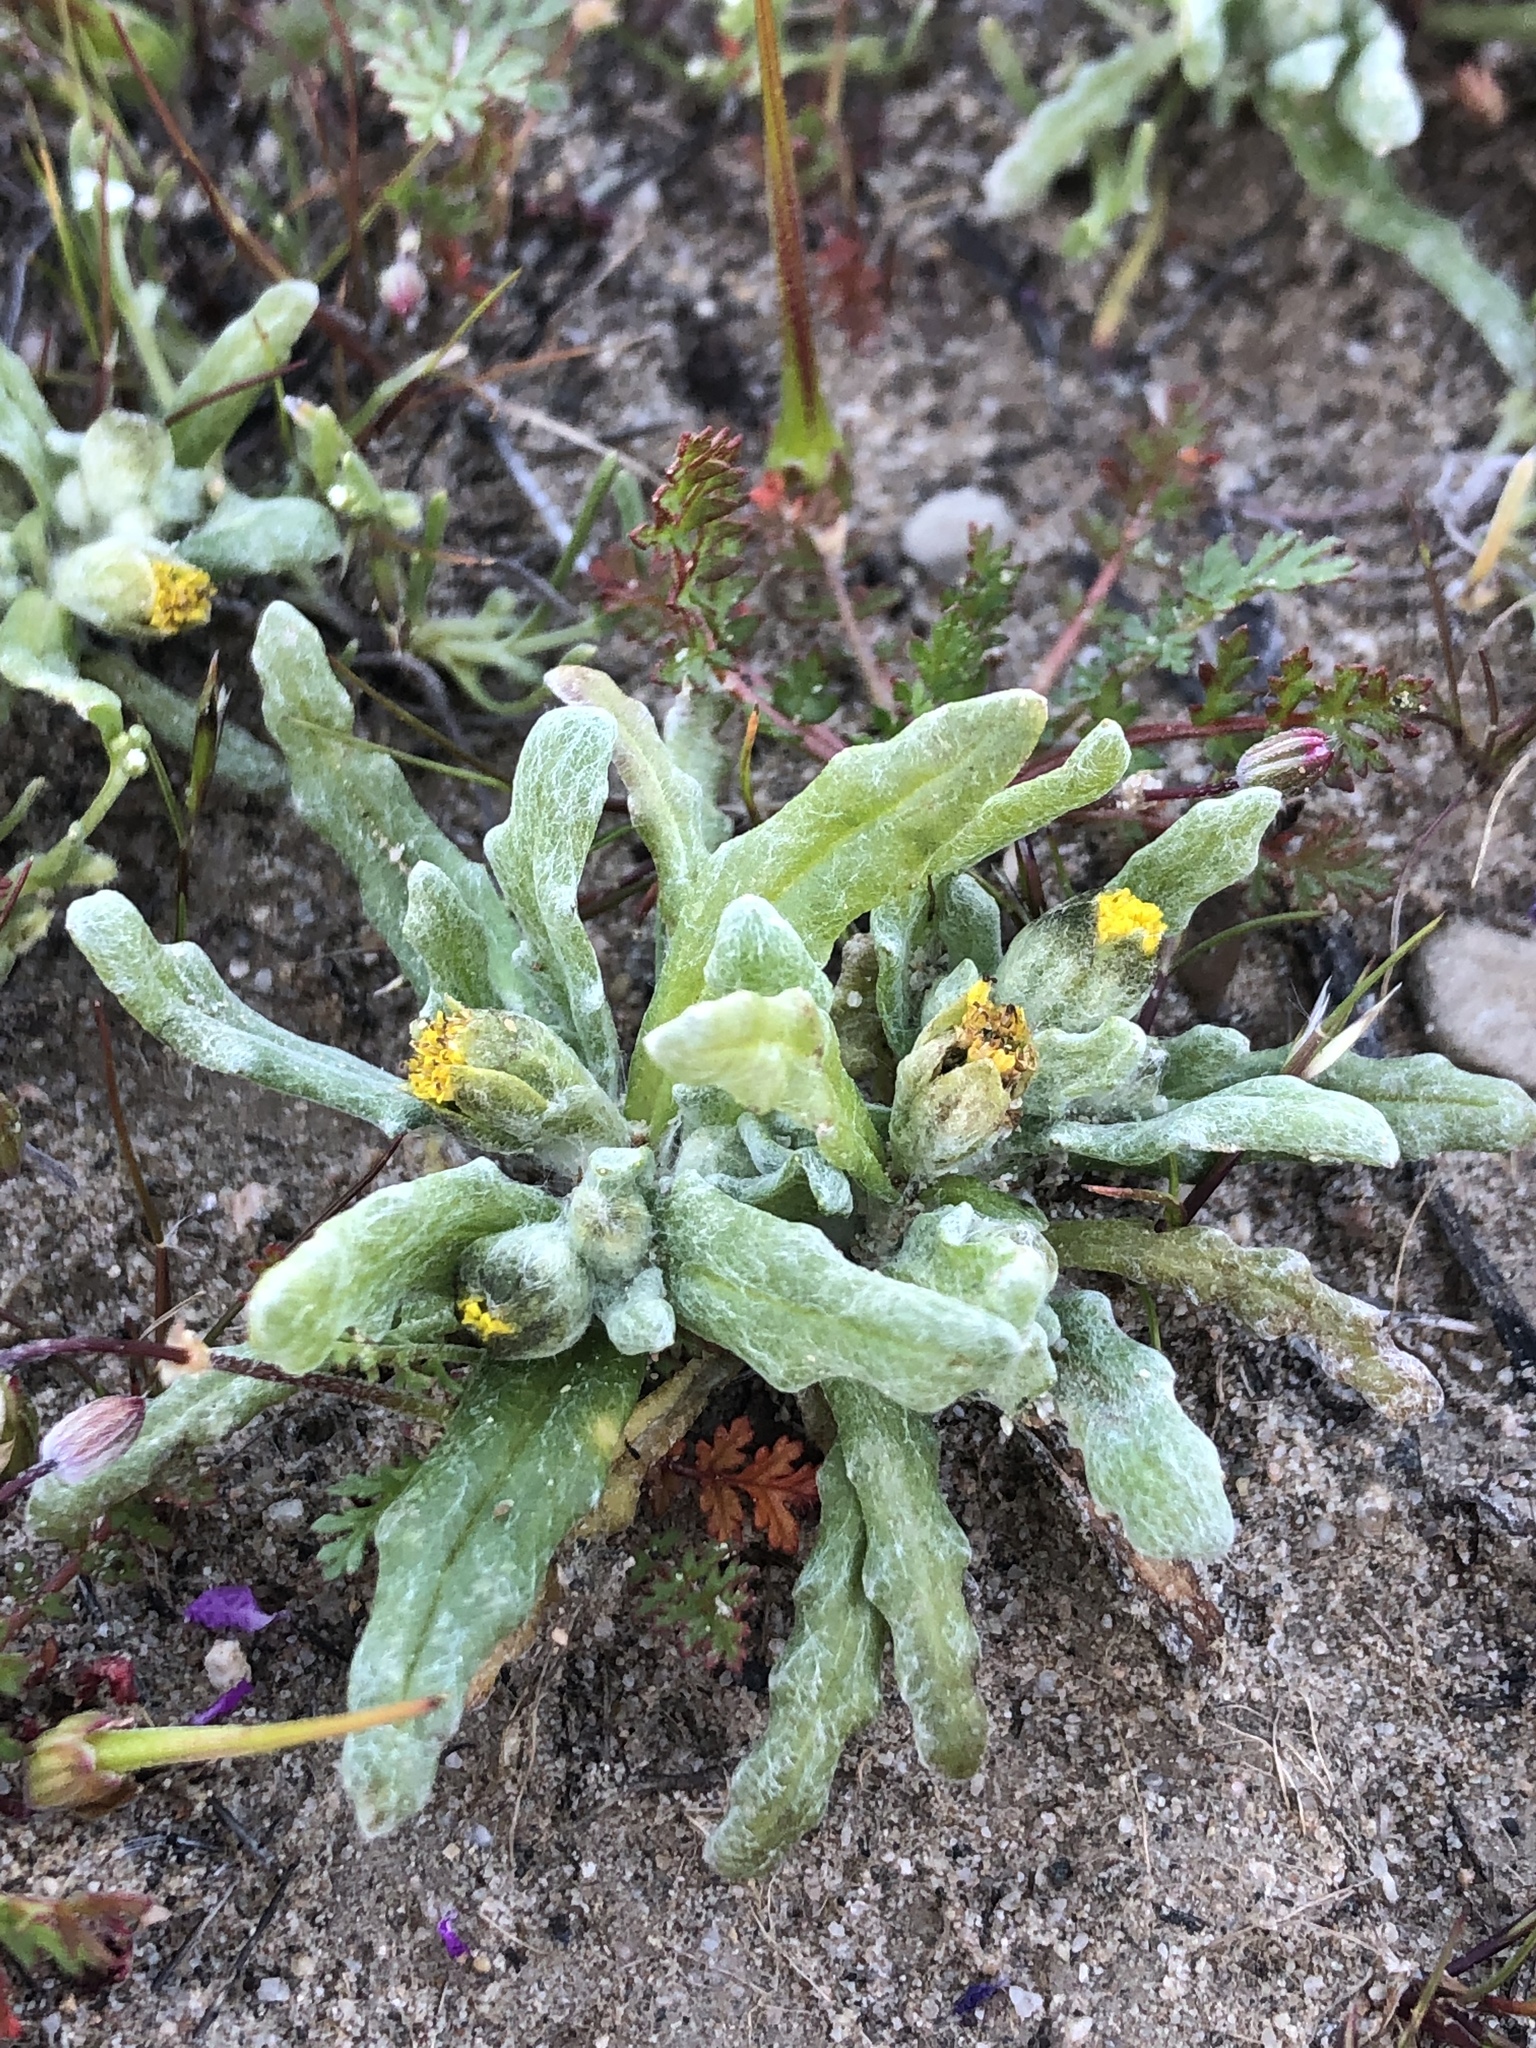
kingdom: Plantae
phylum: Tracheophyta
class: Magnoliopsida
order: Asterales
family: Asteraceae
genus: Monolopia
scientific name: Monolopia congdonii
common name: San joaquin woolly-threads
